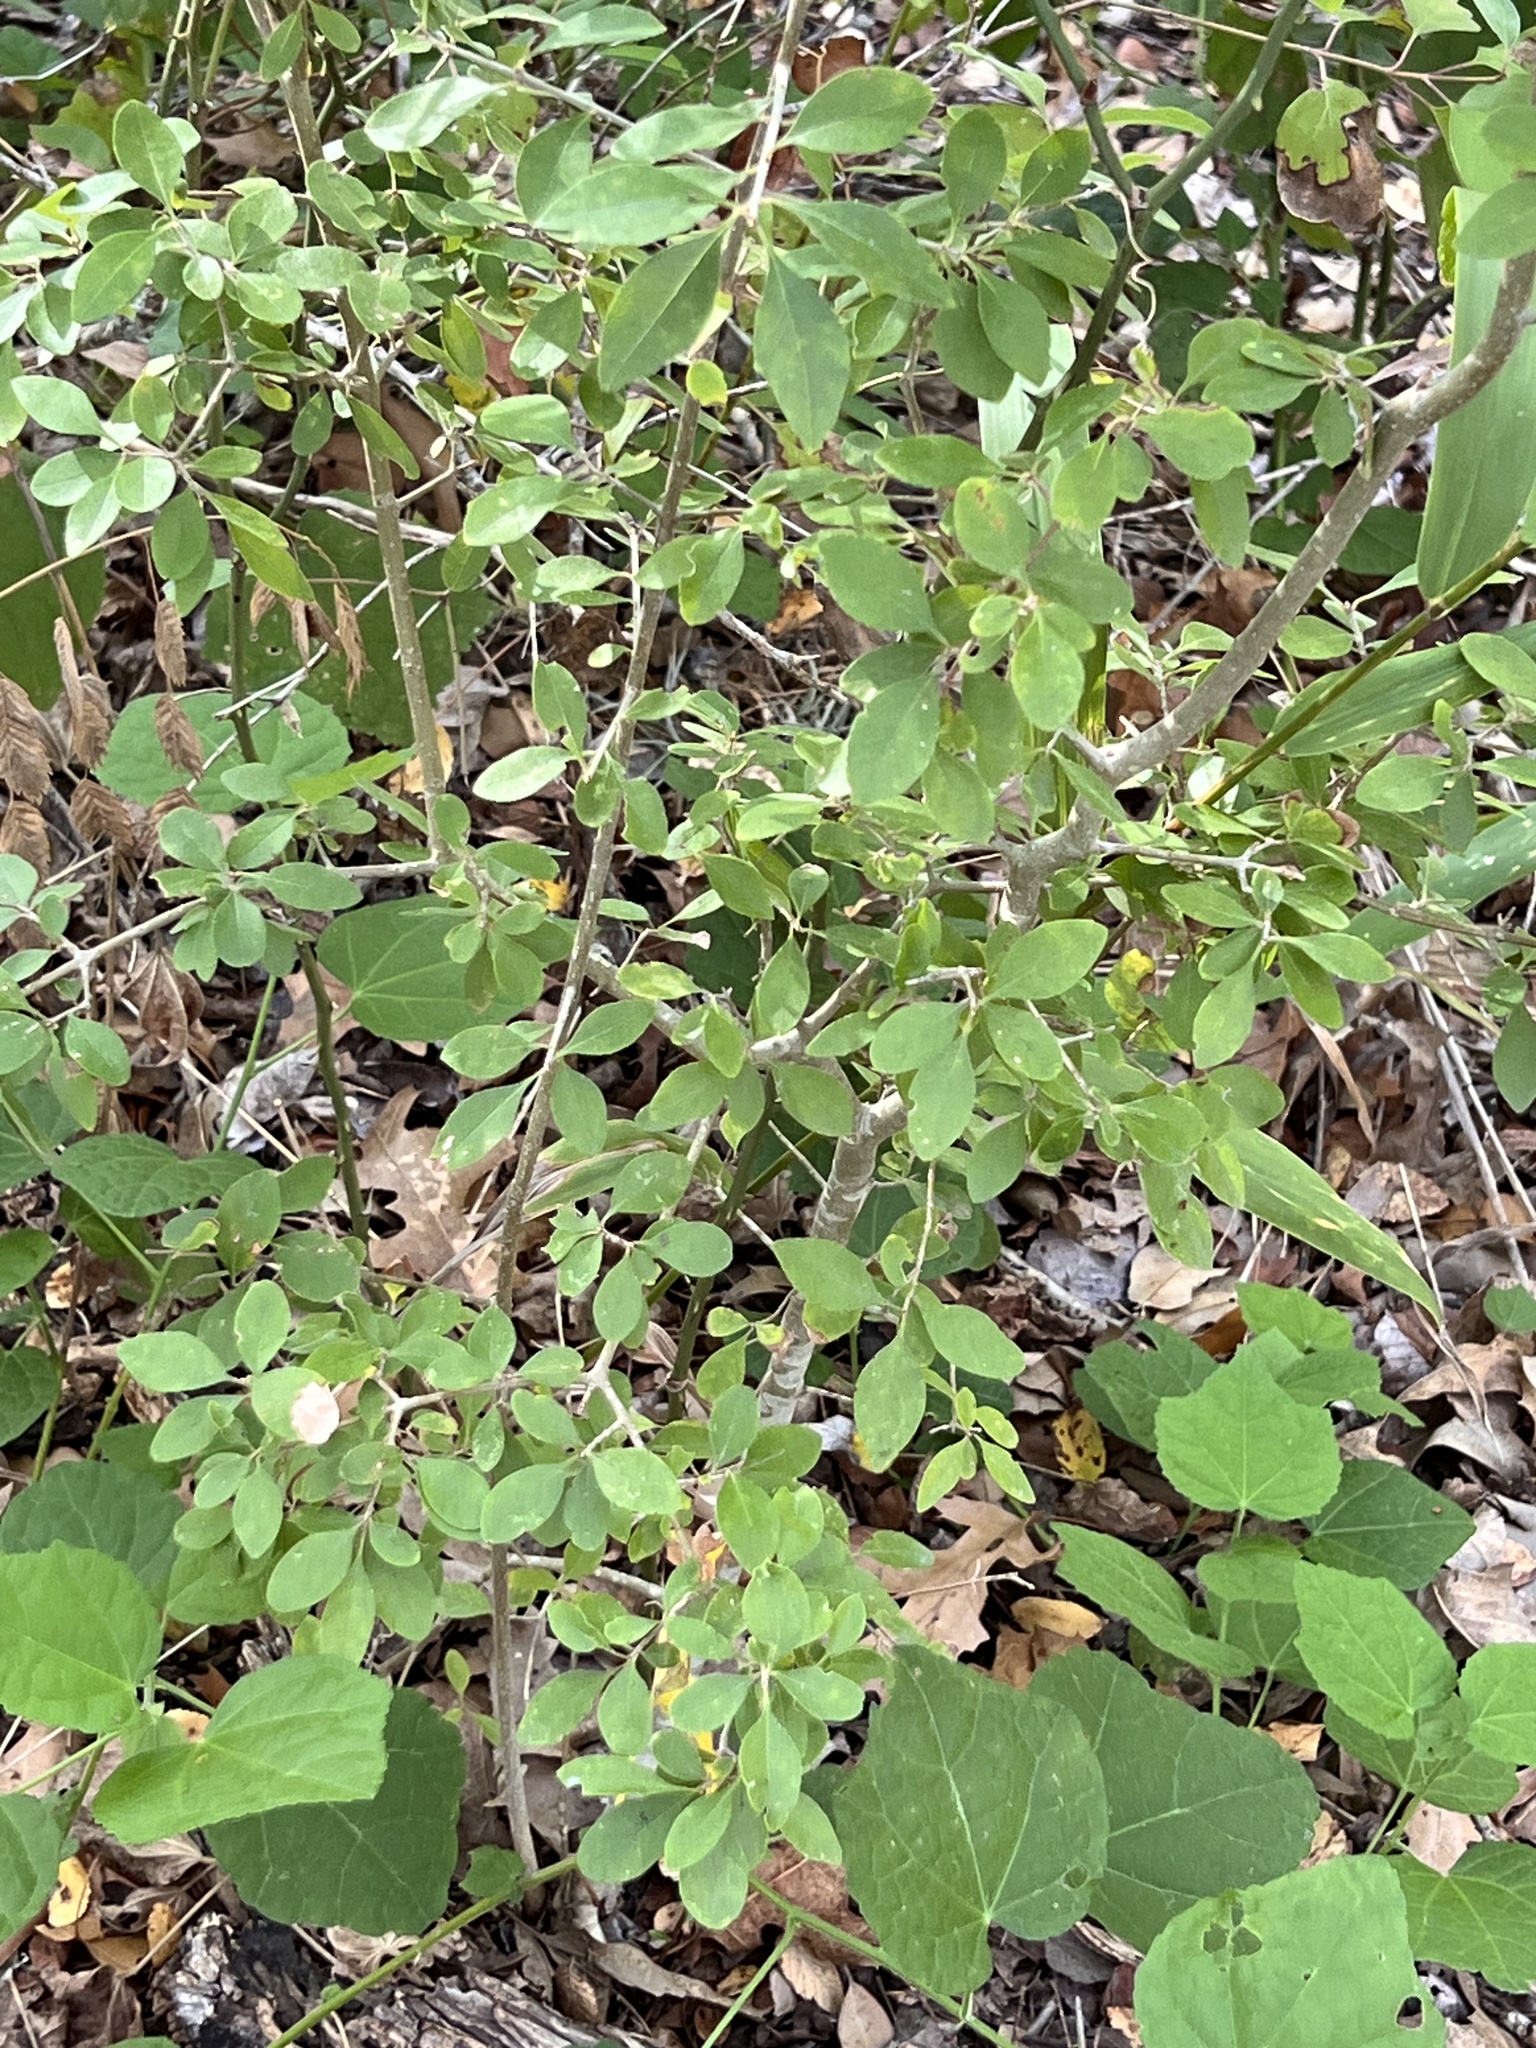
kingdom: Plantae
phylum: Tracheophyta
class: Magnoliopsida
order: Lamiales
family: Oleaceae
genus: Forestiera
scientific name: Forestiera pubescens
